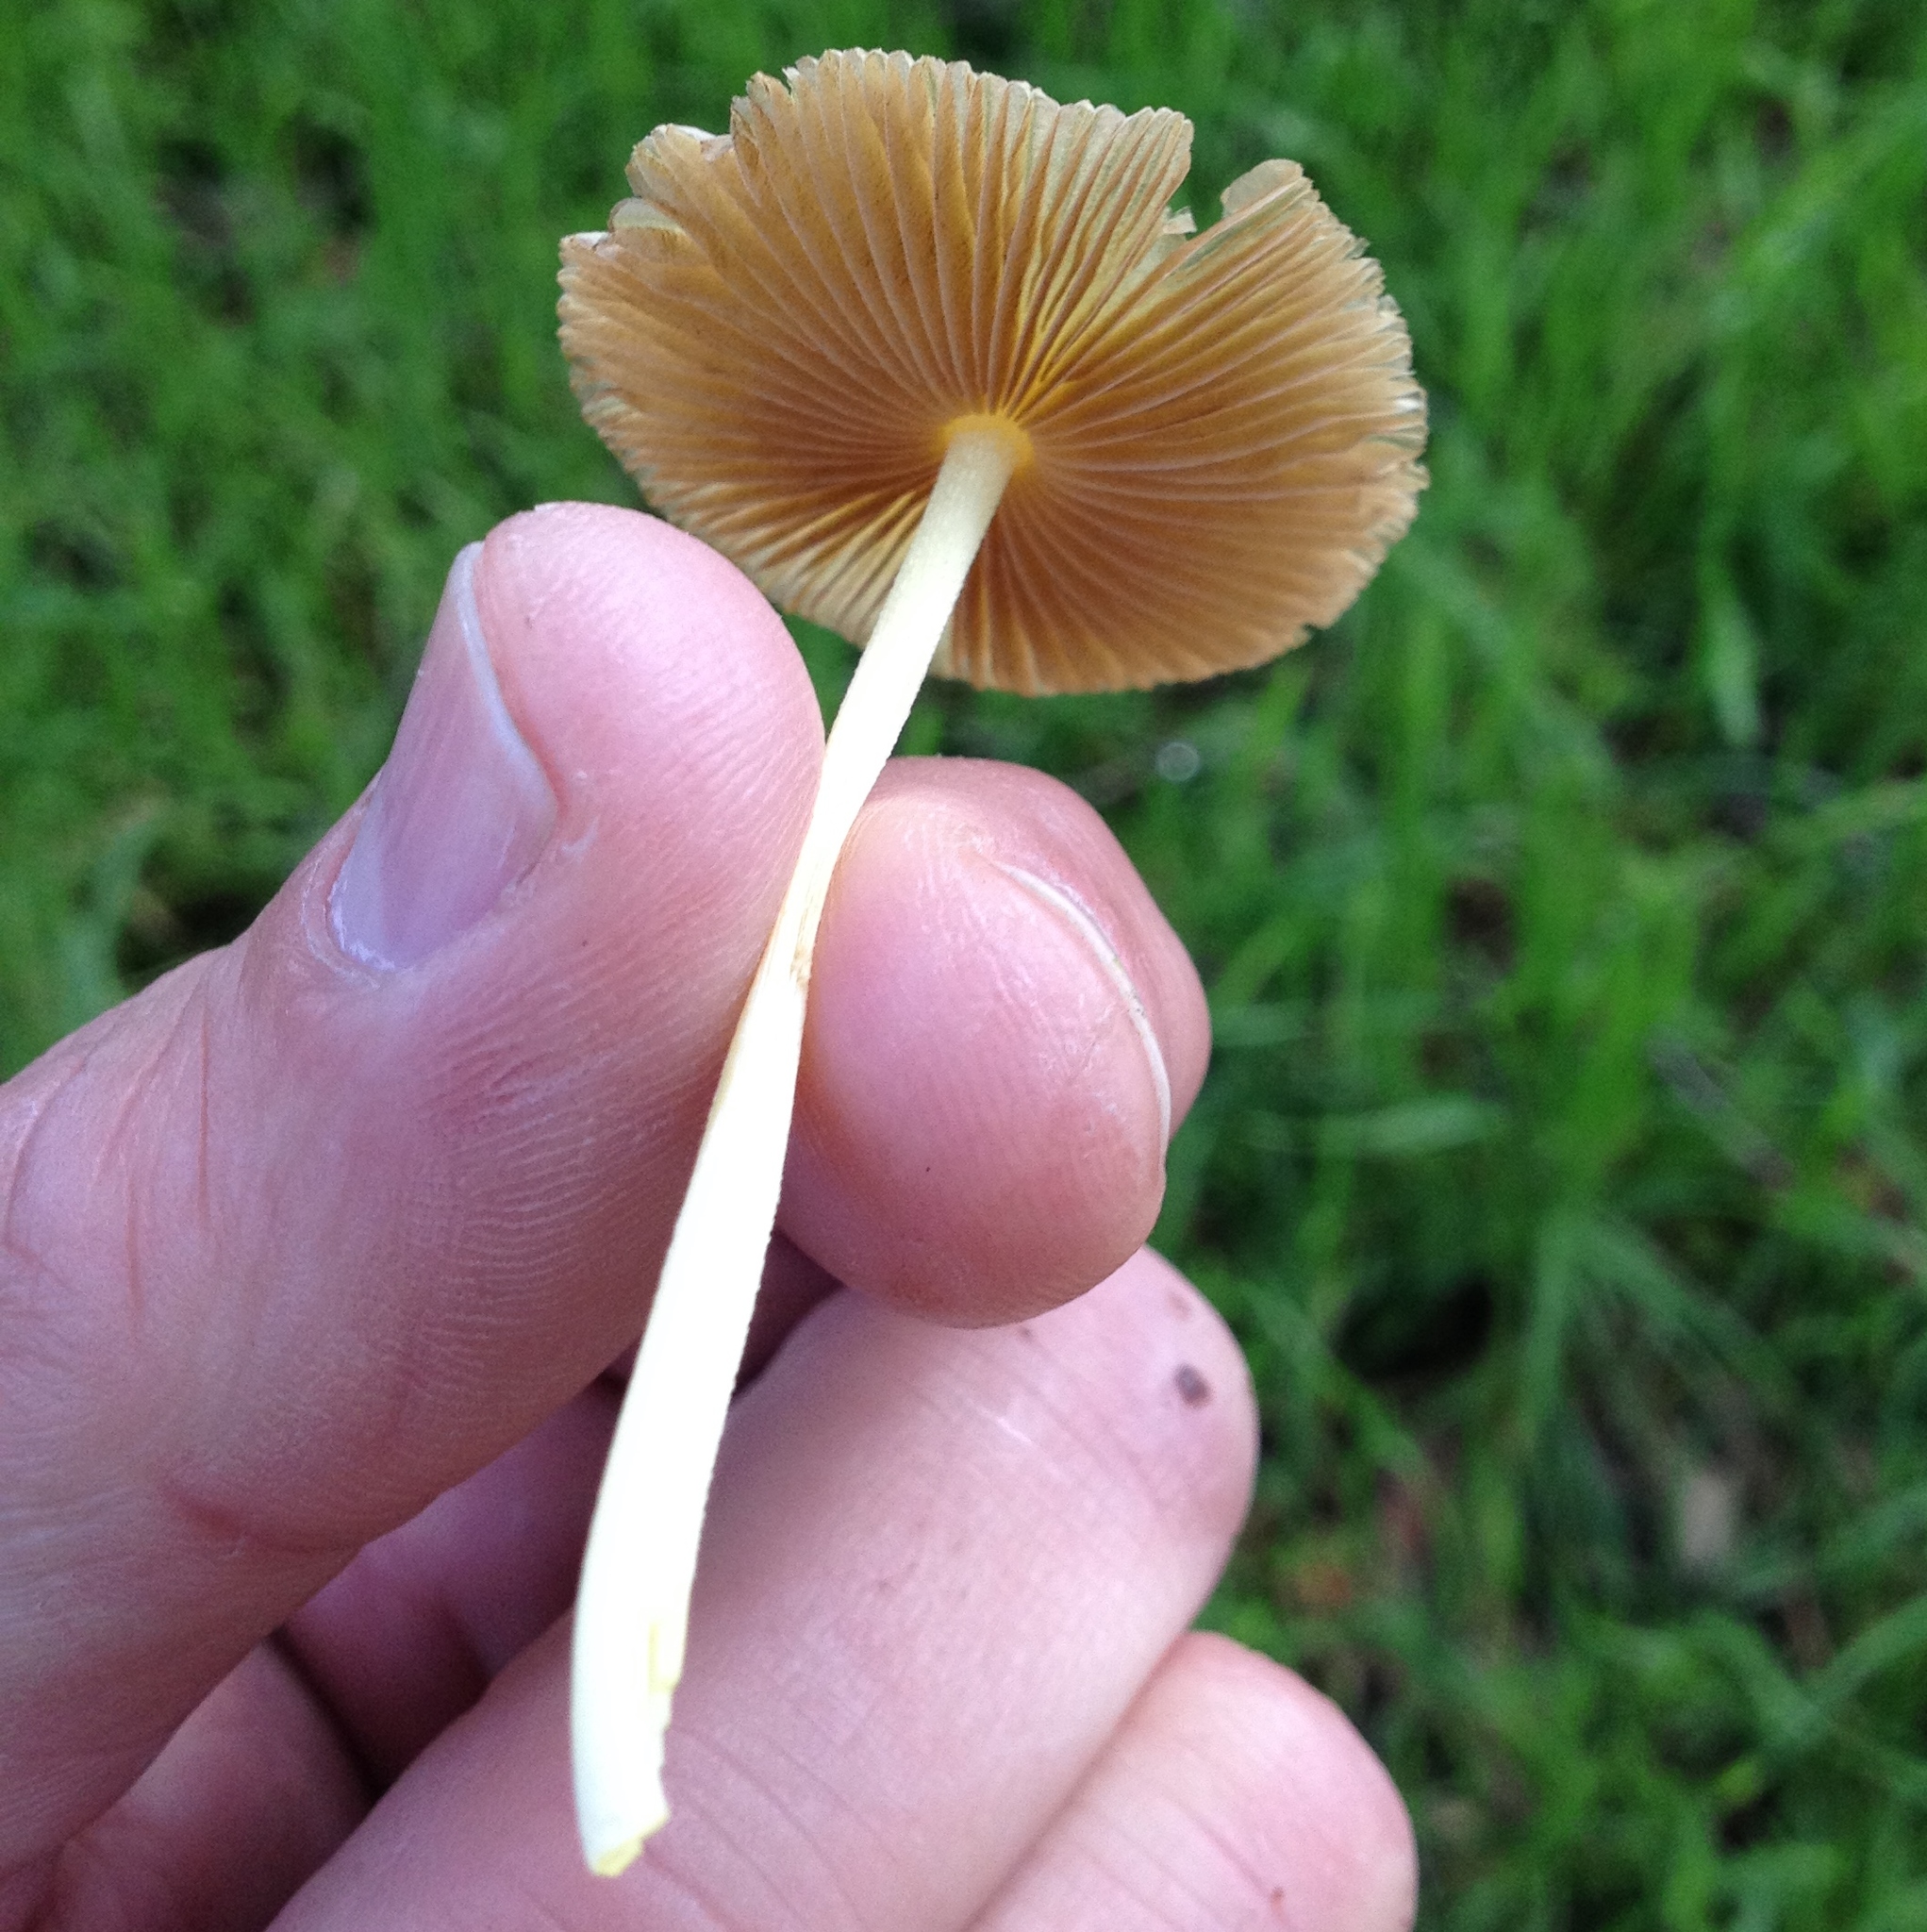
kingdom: Fungi
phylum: Basidiomycota
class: Agaricomycetes
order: Agaricales
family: Bolbitiaceae
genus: Bolbitius
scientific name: Bolbitius titubans
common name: Yellow fieldcap
